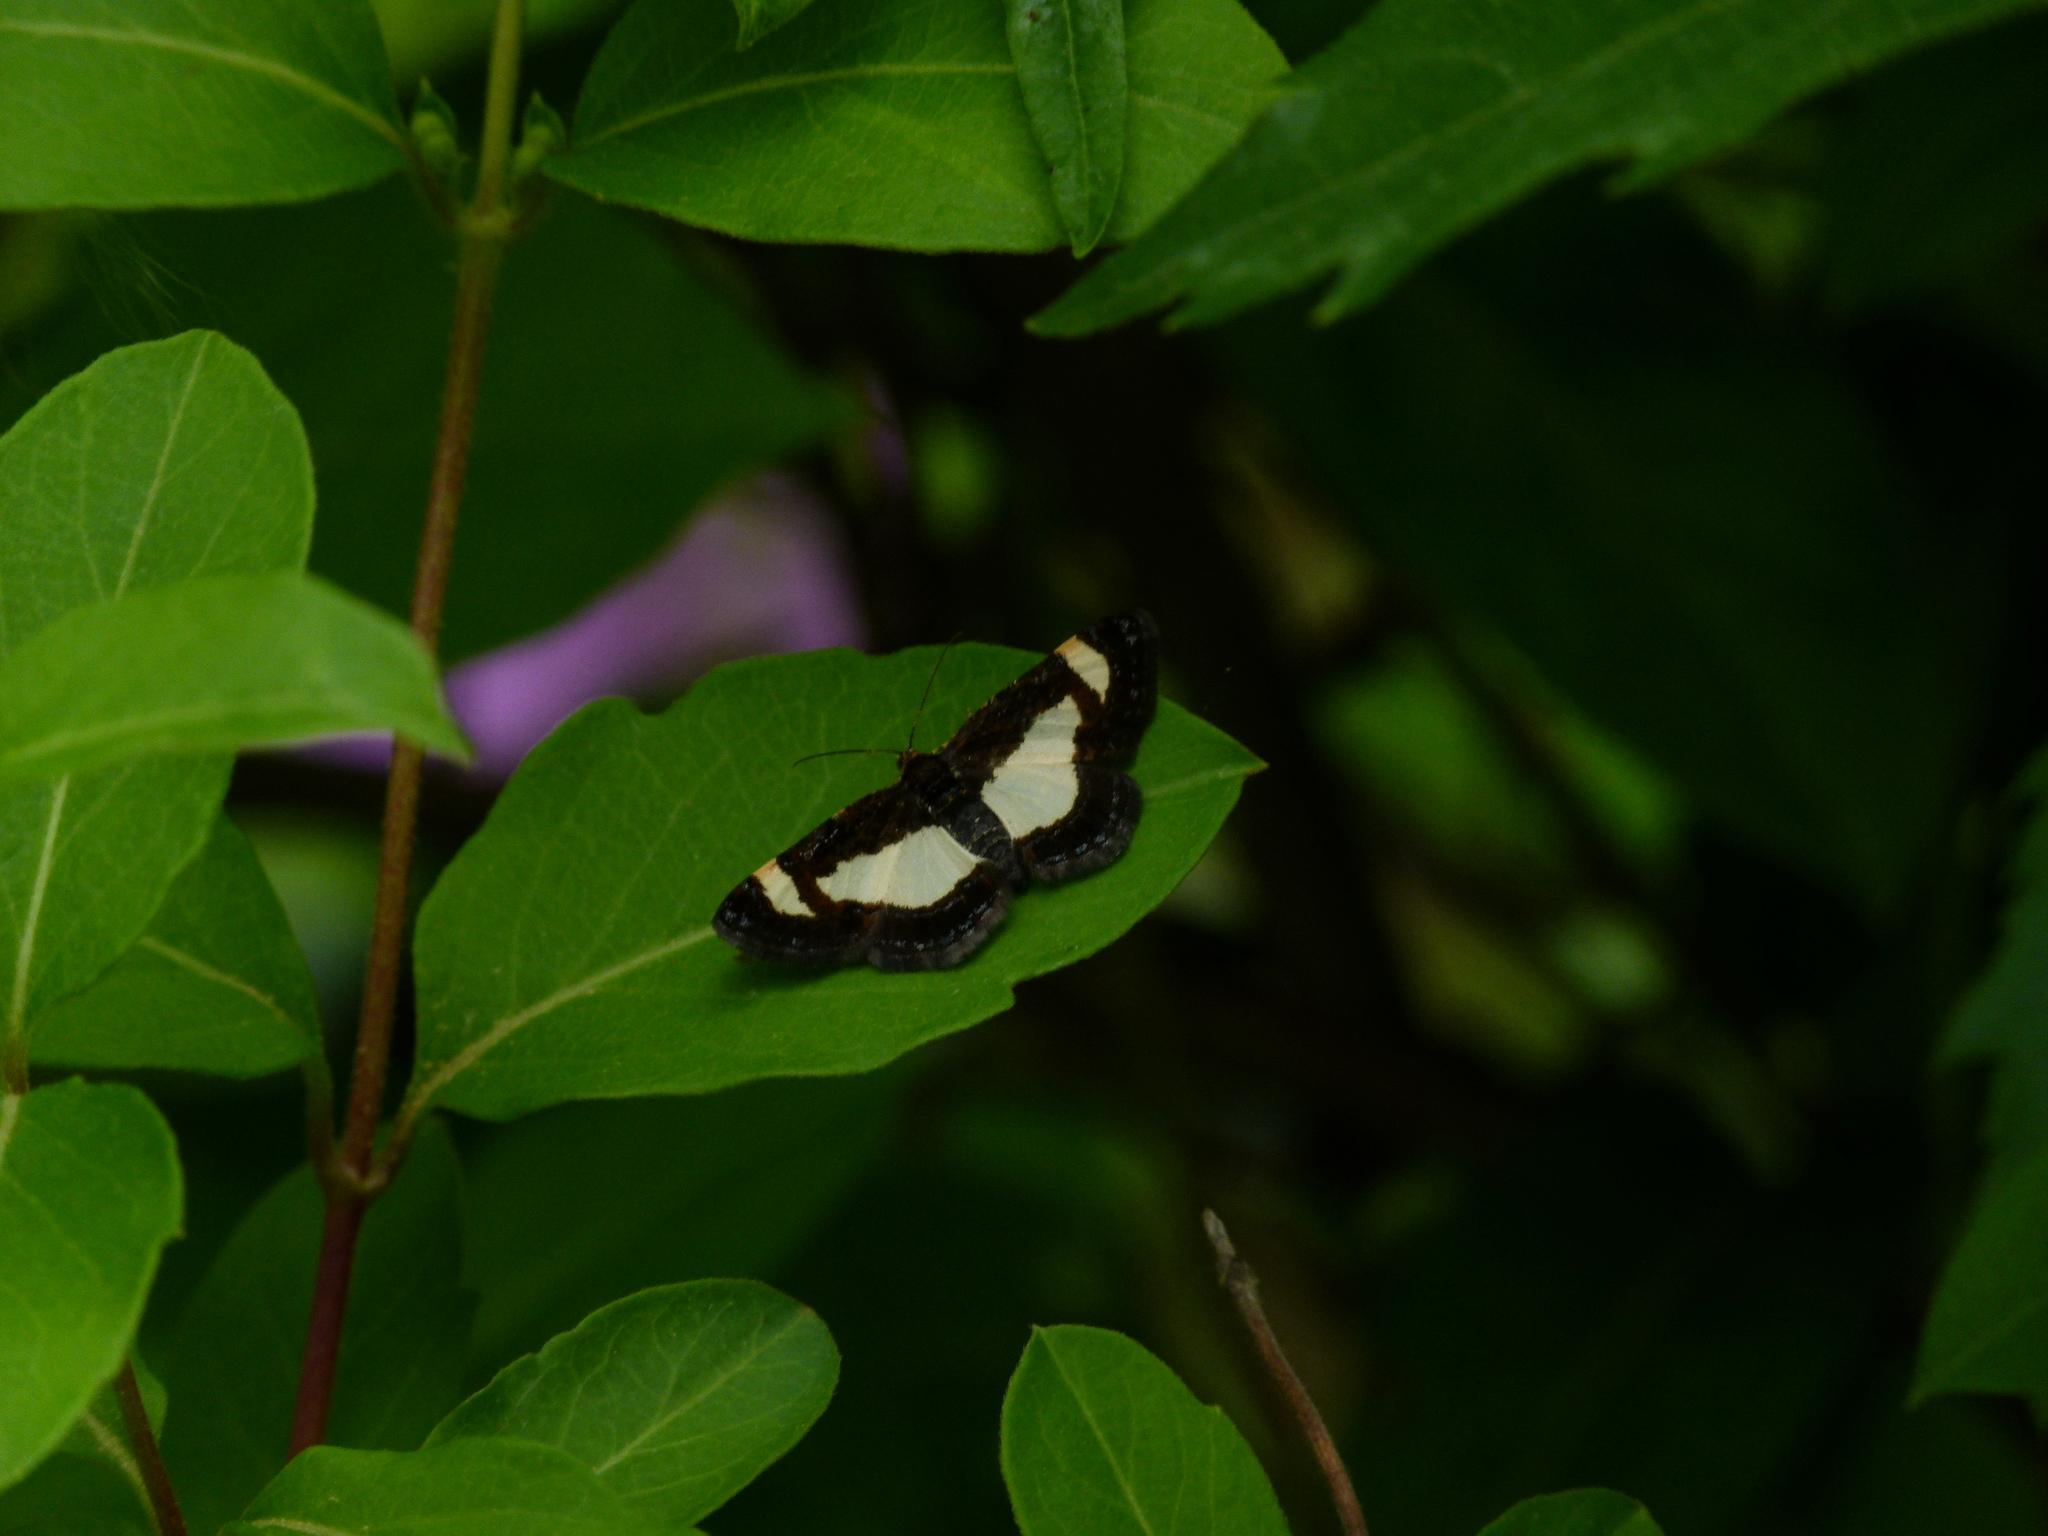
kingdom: Animalia
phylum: Arthropoda
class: Insecta
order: Lepidoptera
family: Geometridae
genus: Heliomata
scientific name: Heliomata cycladata
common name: Common spring moth
